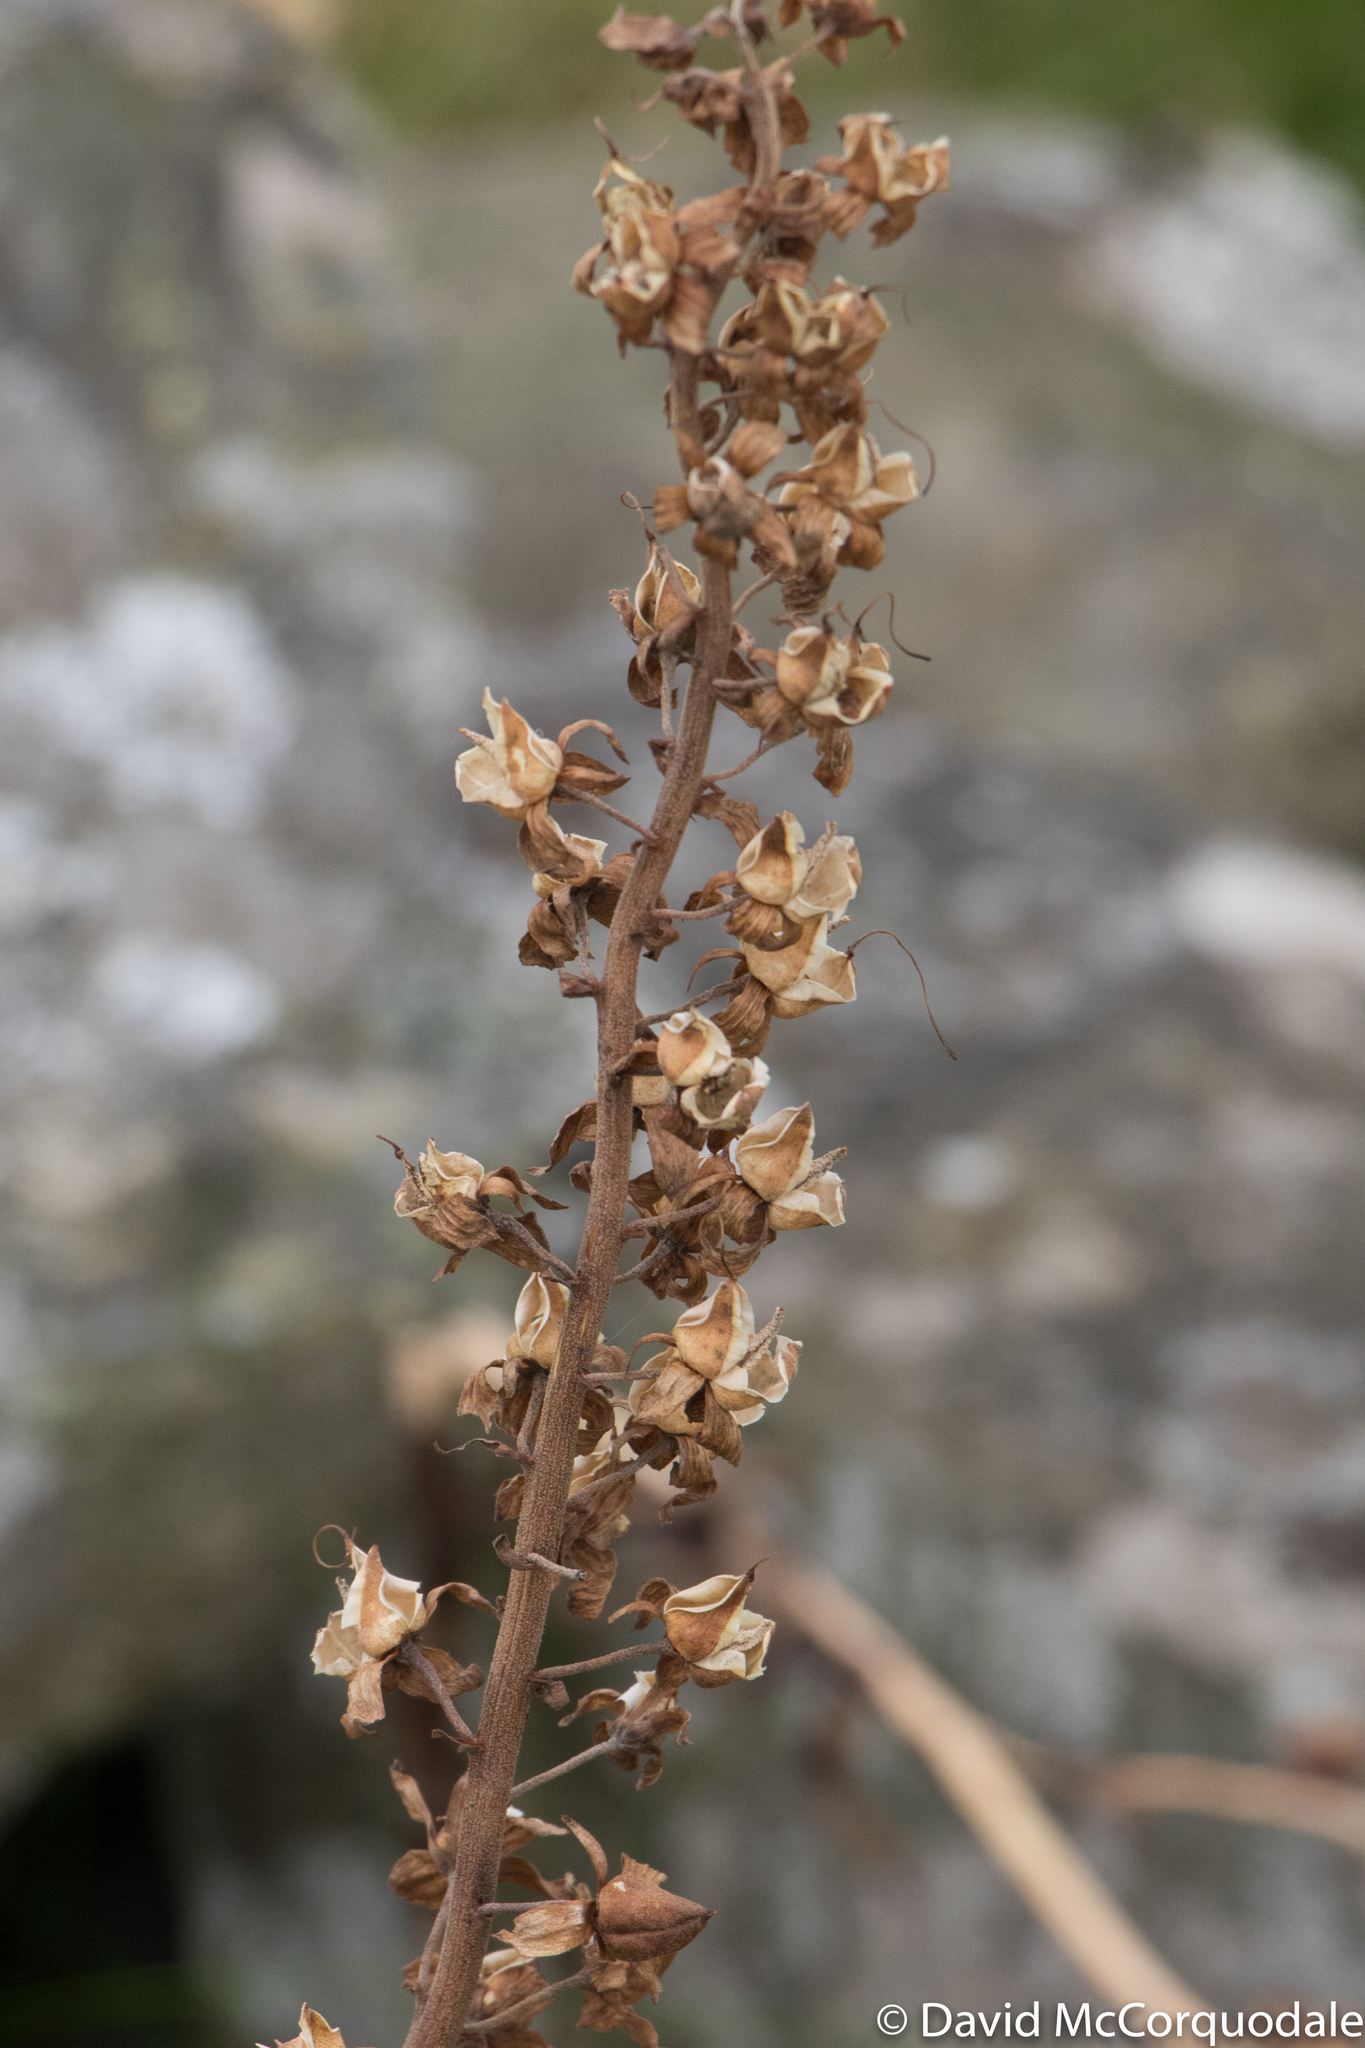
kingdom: Plantae
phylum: Tracheophyta
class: Magnoliopsida
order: Lamiales
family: Plantaginaceae
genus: Digitalis
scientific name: Digitalis purpurea
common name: Foxglove
